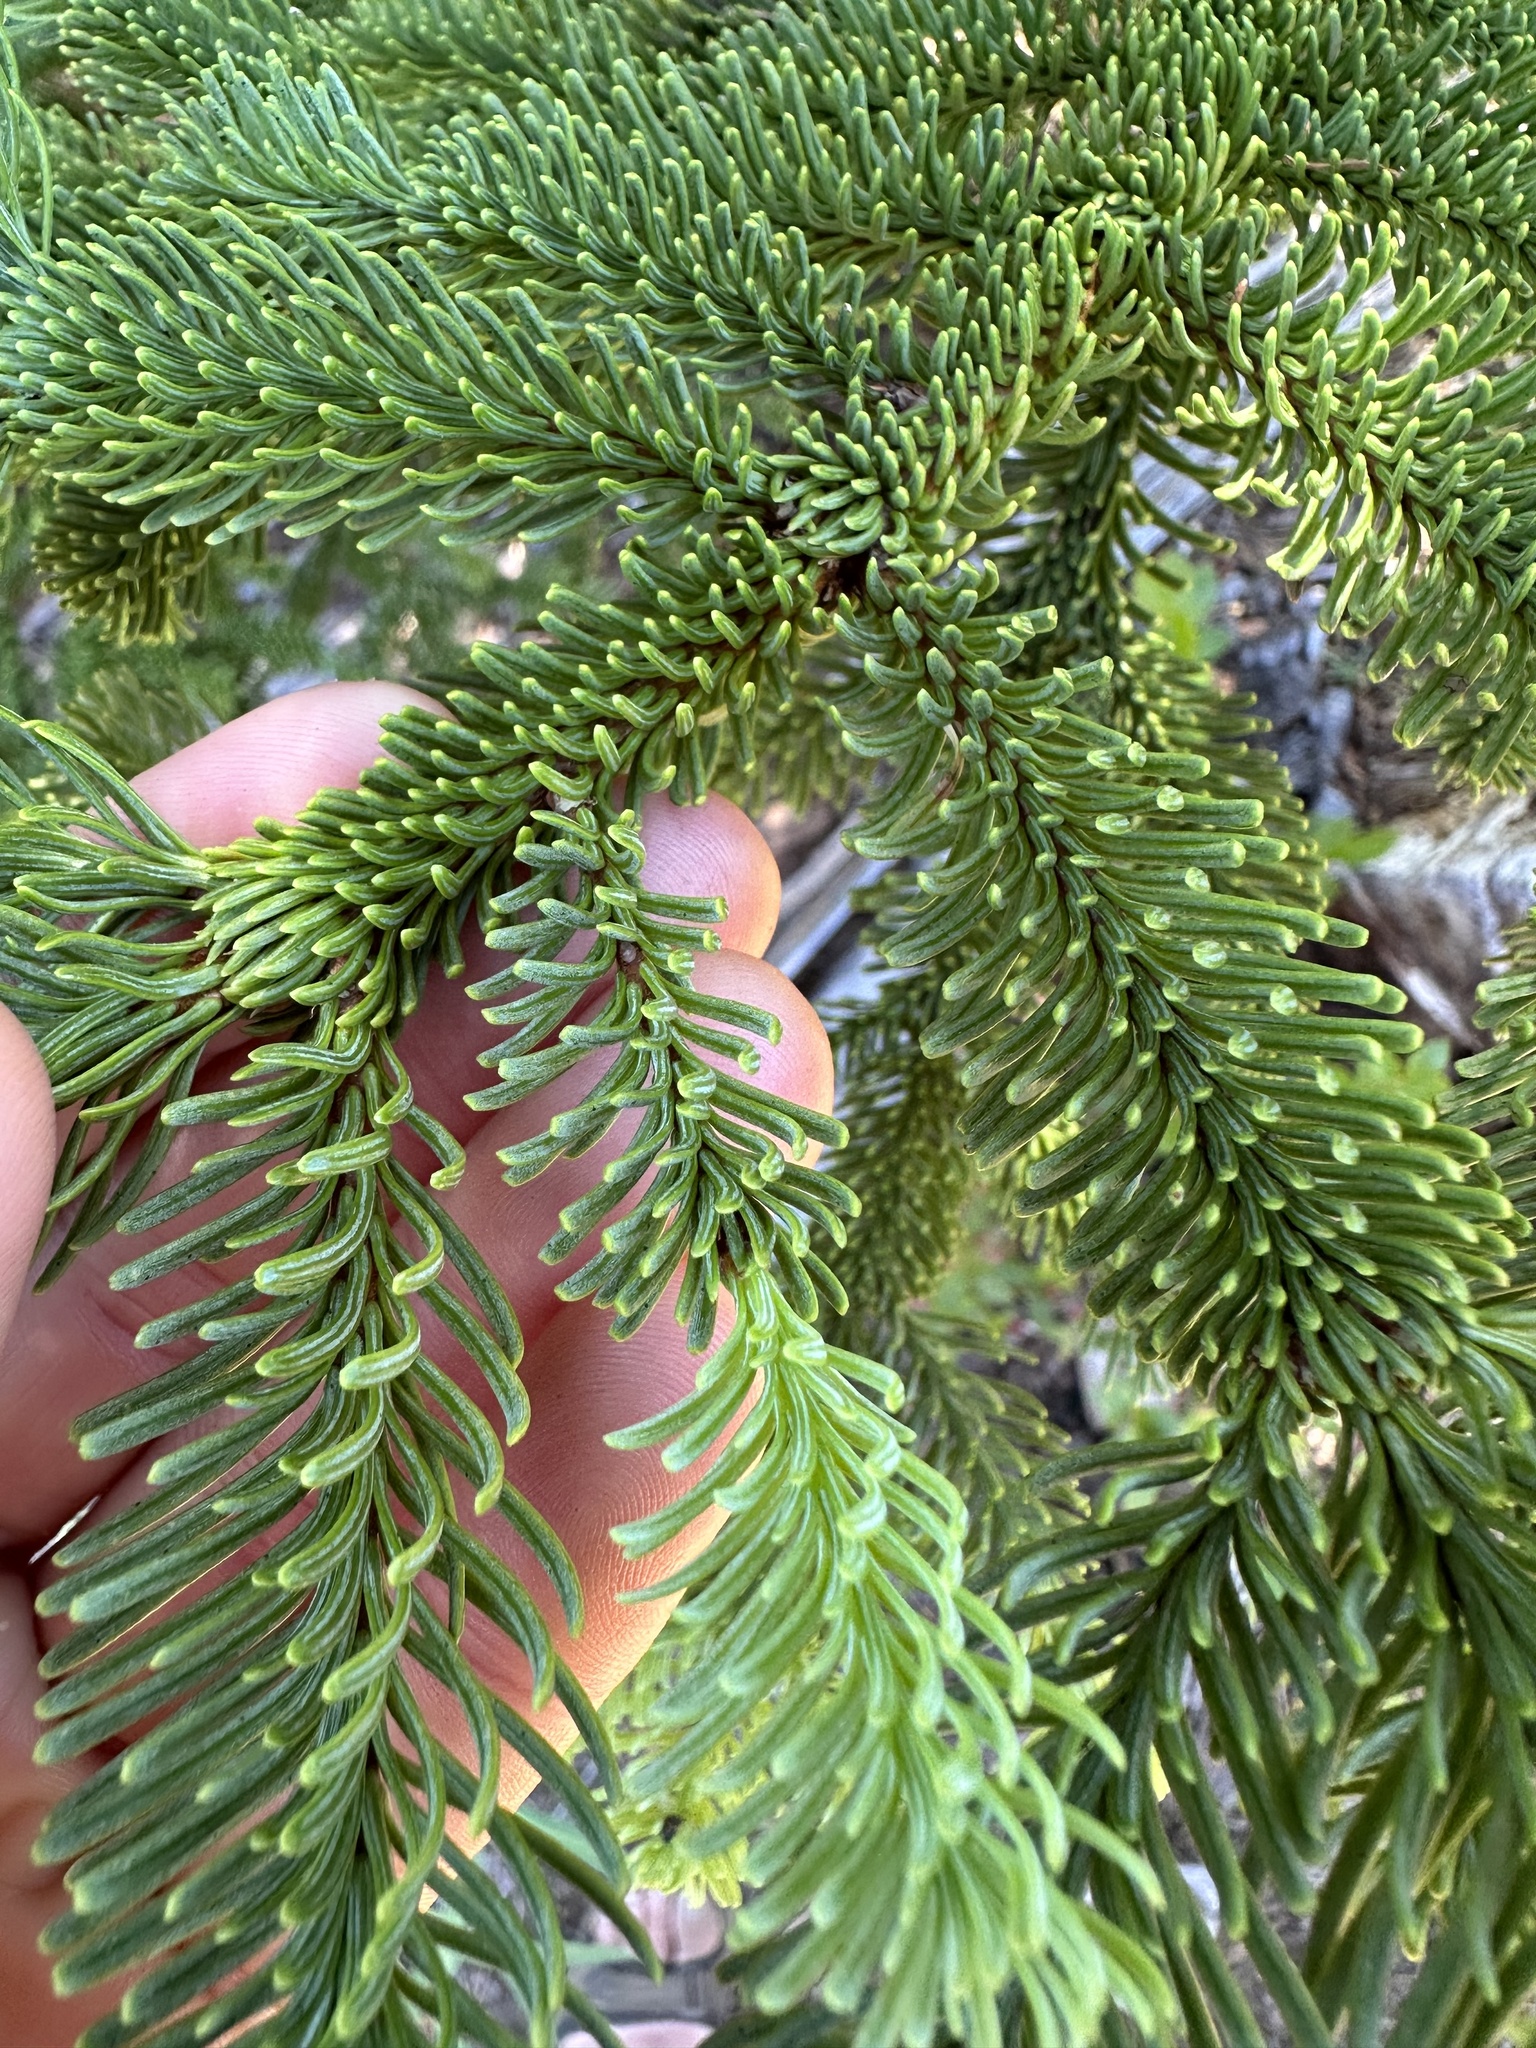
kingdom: Plantae
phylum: Tracheophyta
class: Pinopsida
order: Pinales
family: Pinaceae
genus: Abies
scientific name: Abies procera
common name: Noble fir
